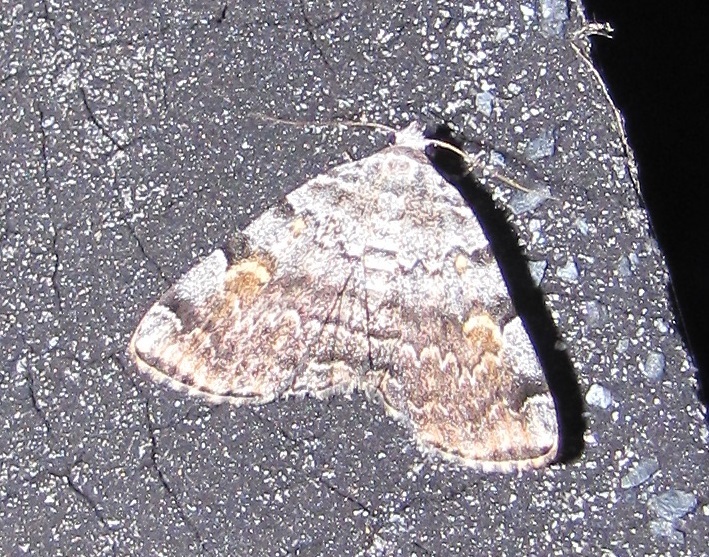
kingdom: Animalia
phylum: Arthropoda
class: Insecta
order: Lepidoptera
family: Erebidae
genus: Idia
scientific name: Idia americalis
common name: American idia moth
